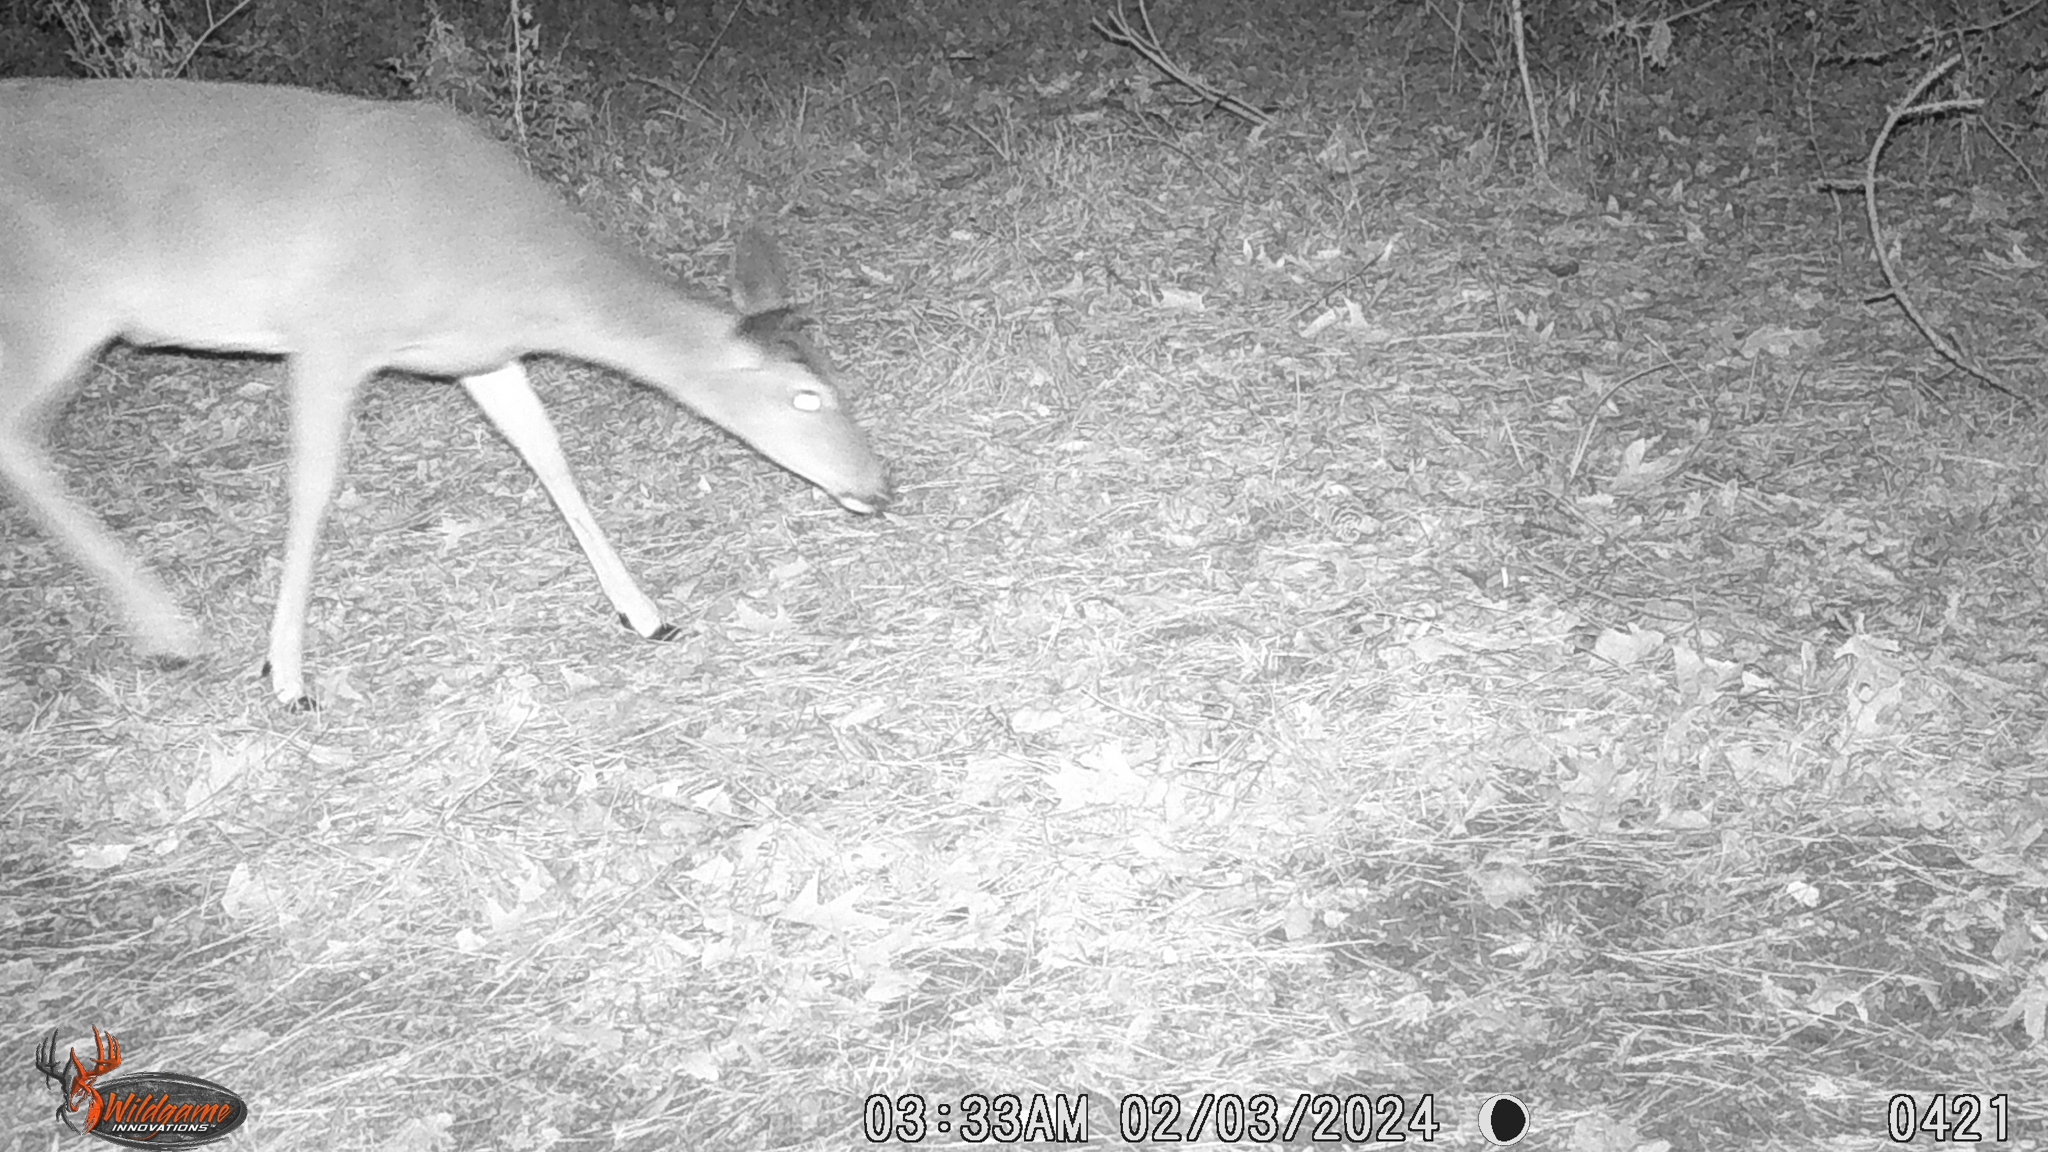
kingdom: Animalia
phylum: Chordata
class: Mammalia
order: Artiodactyla
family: Cervidae
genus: Odocoileus
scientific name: Odocoileus virginianus
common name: White-tailed deer
